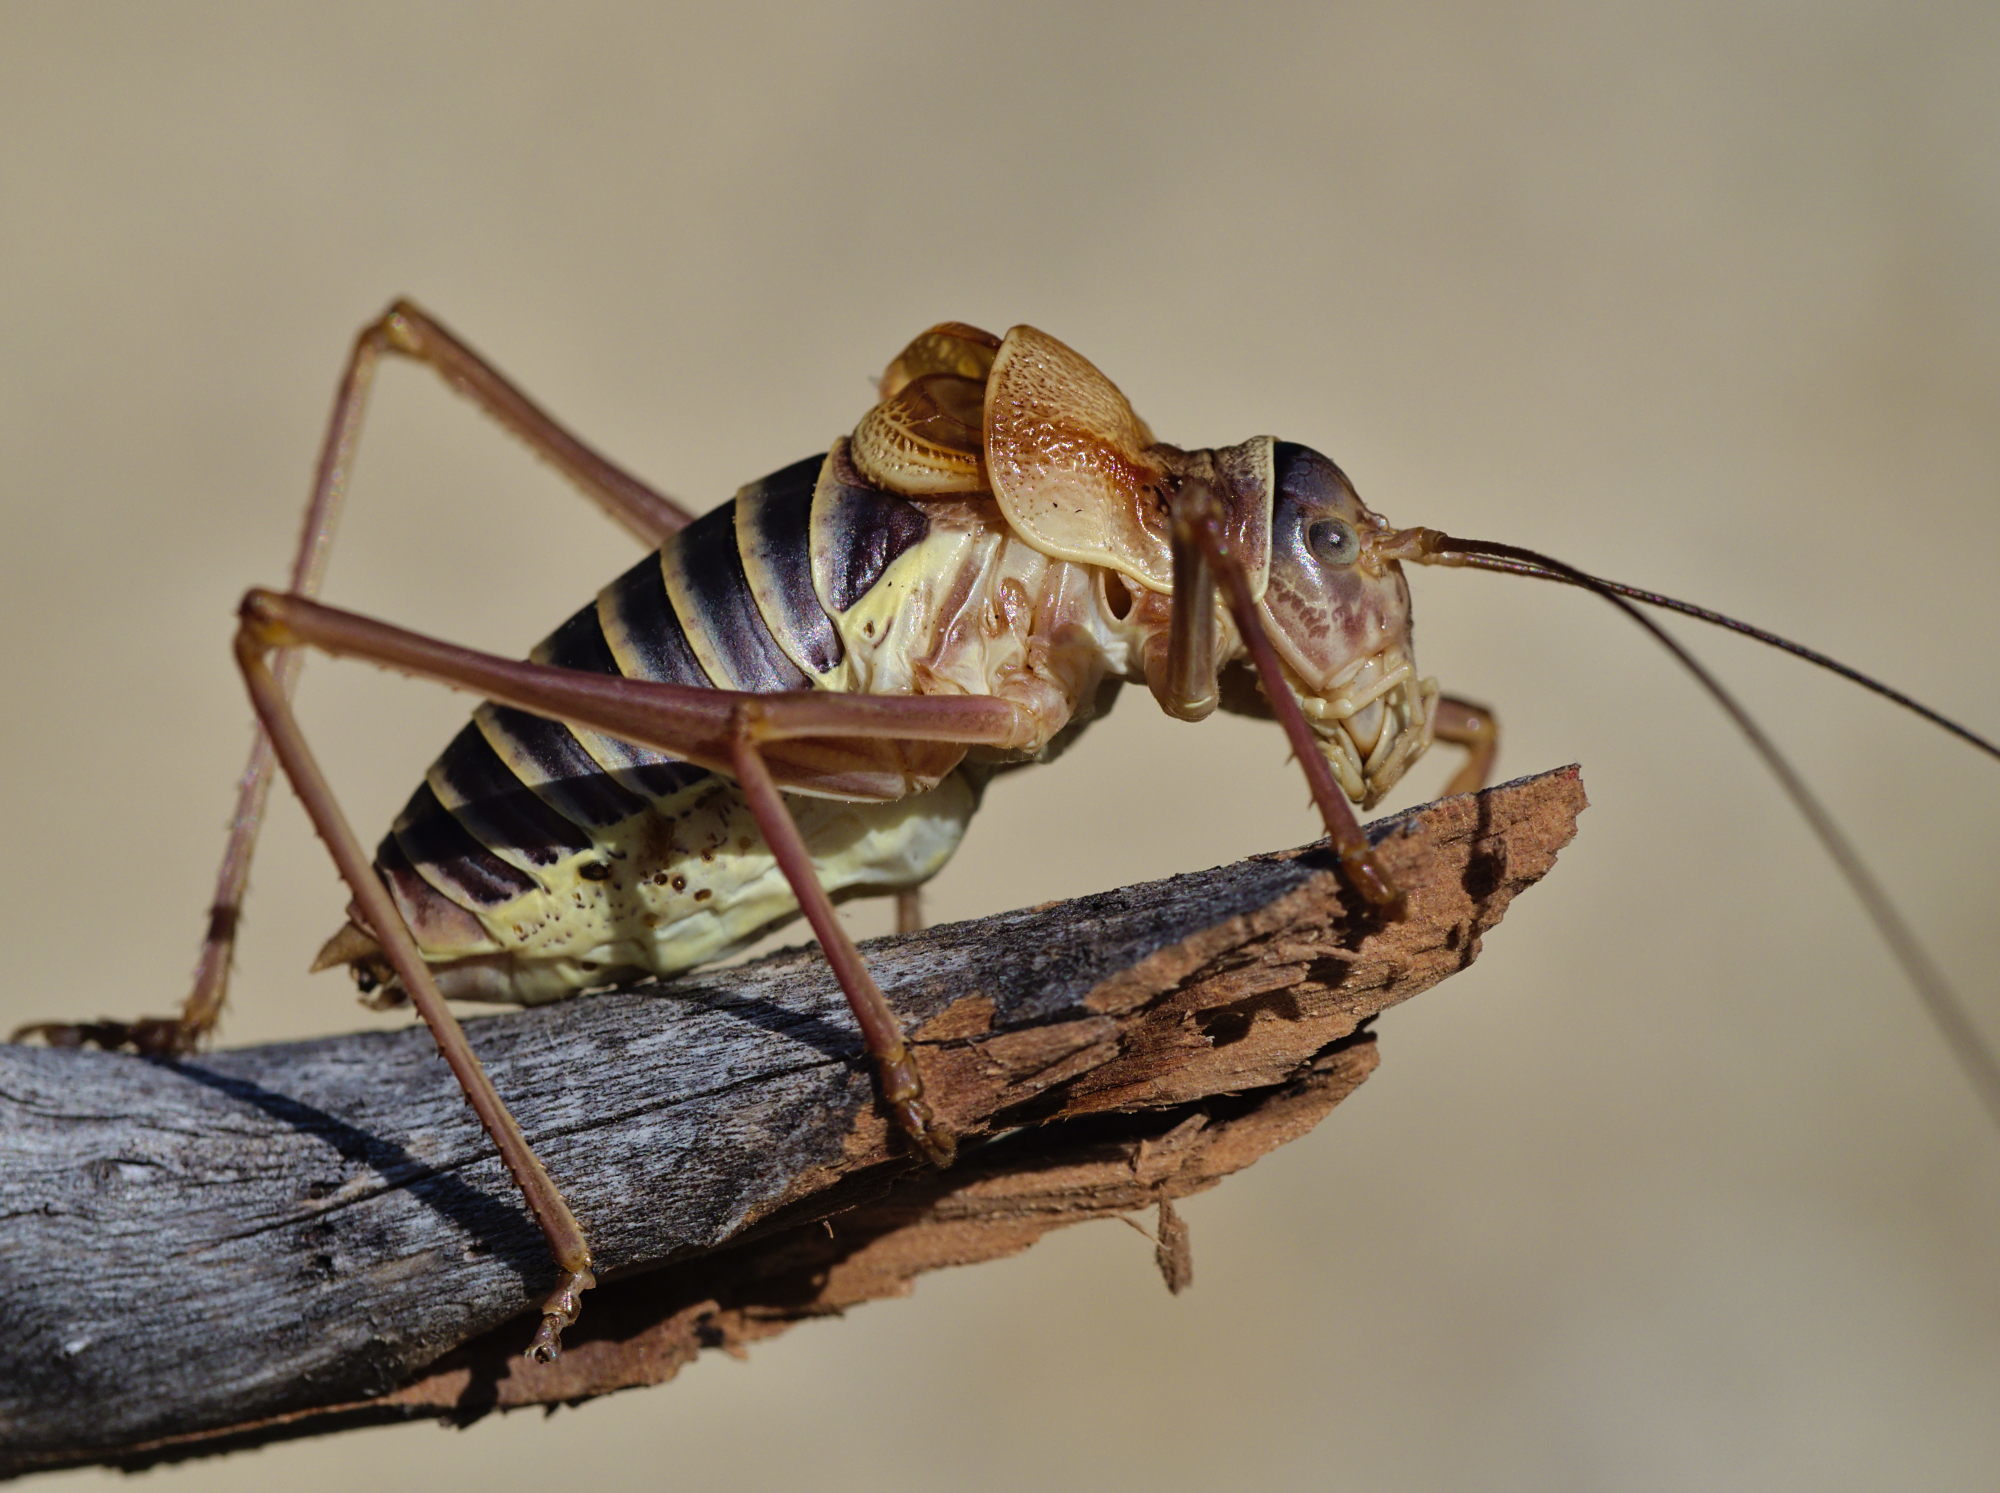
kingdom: Animalia
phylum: Arthropoda
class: Insecta
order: Orthoptera
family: Tettigoniidae
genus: Ephippiger
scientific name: Ephippiger diurnus
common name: Western saddle bush-cricket
